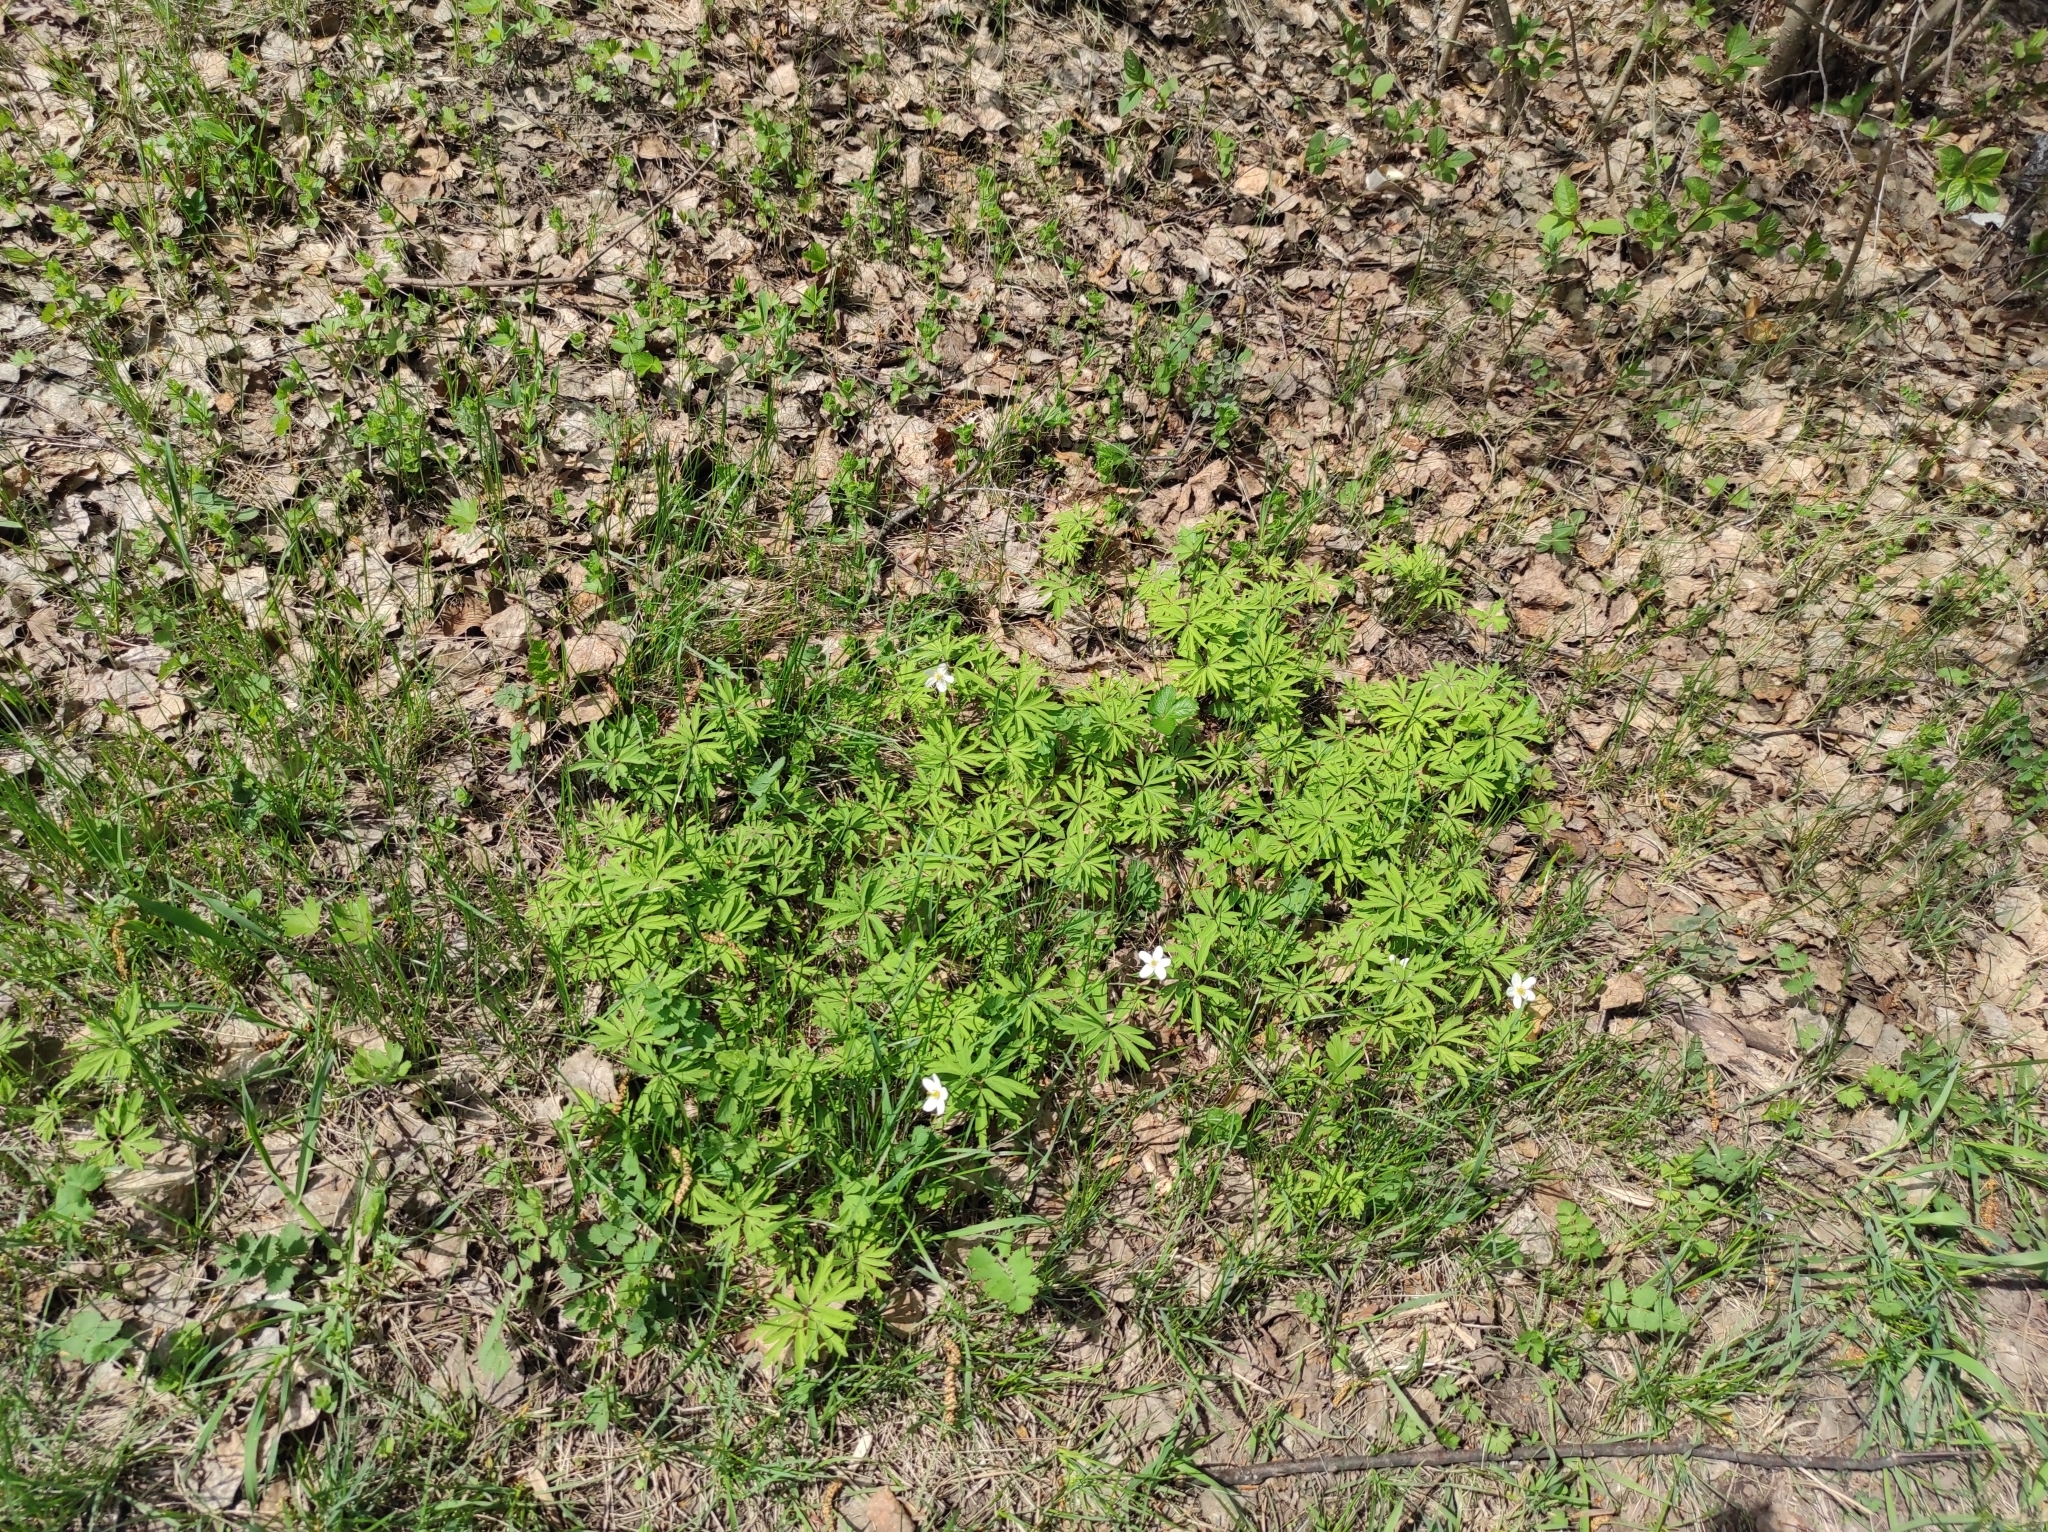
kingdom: Plantae
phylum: Tracheophyta
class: Magnoliopsida
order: Ranunculales
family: Ranunculaceae
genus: Anemone
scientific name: Anemone caerulea
